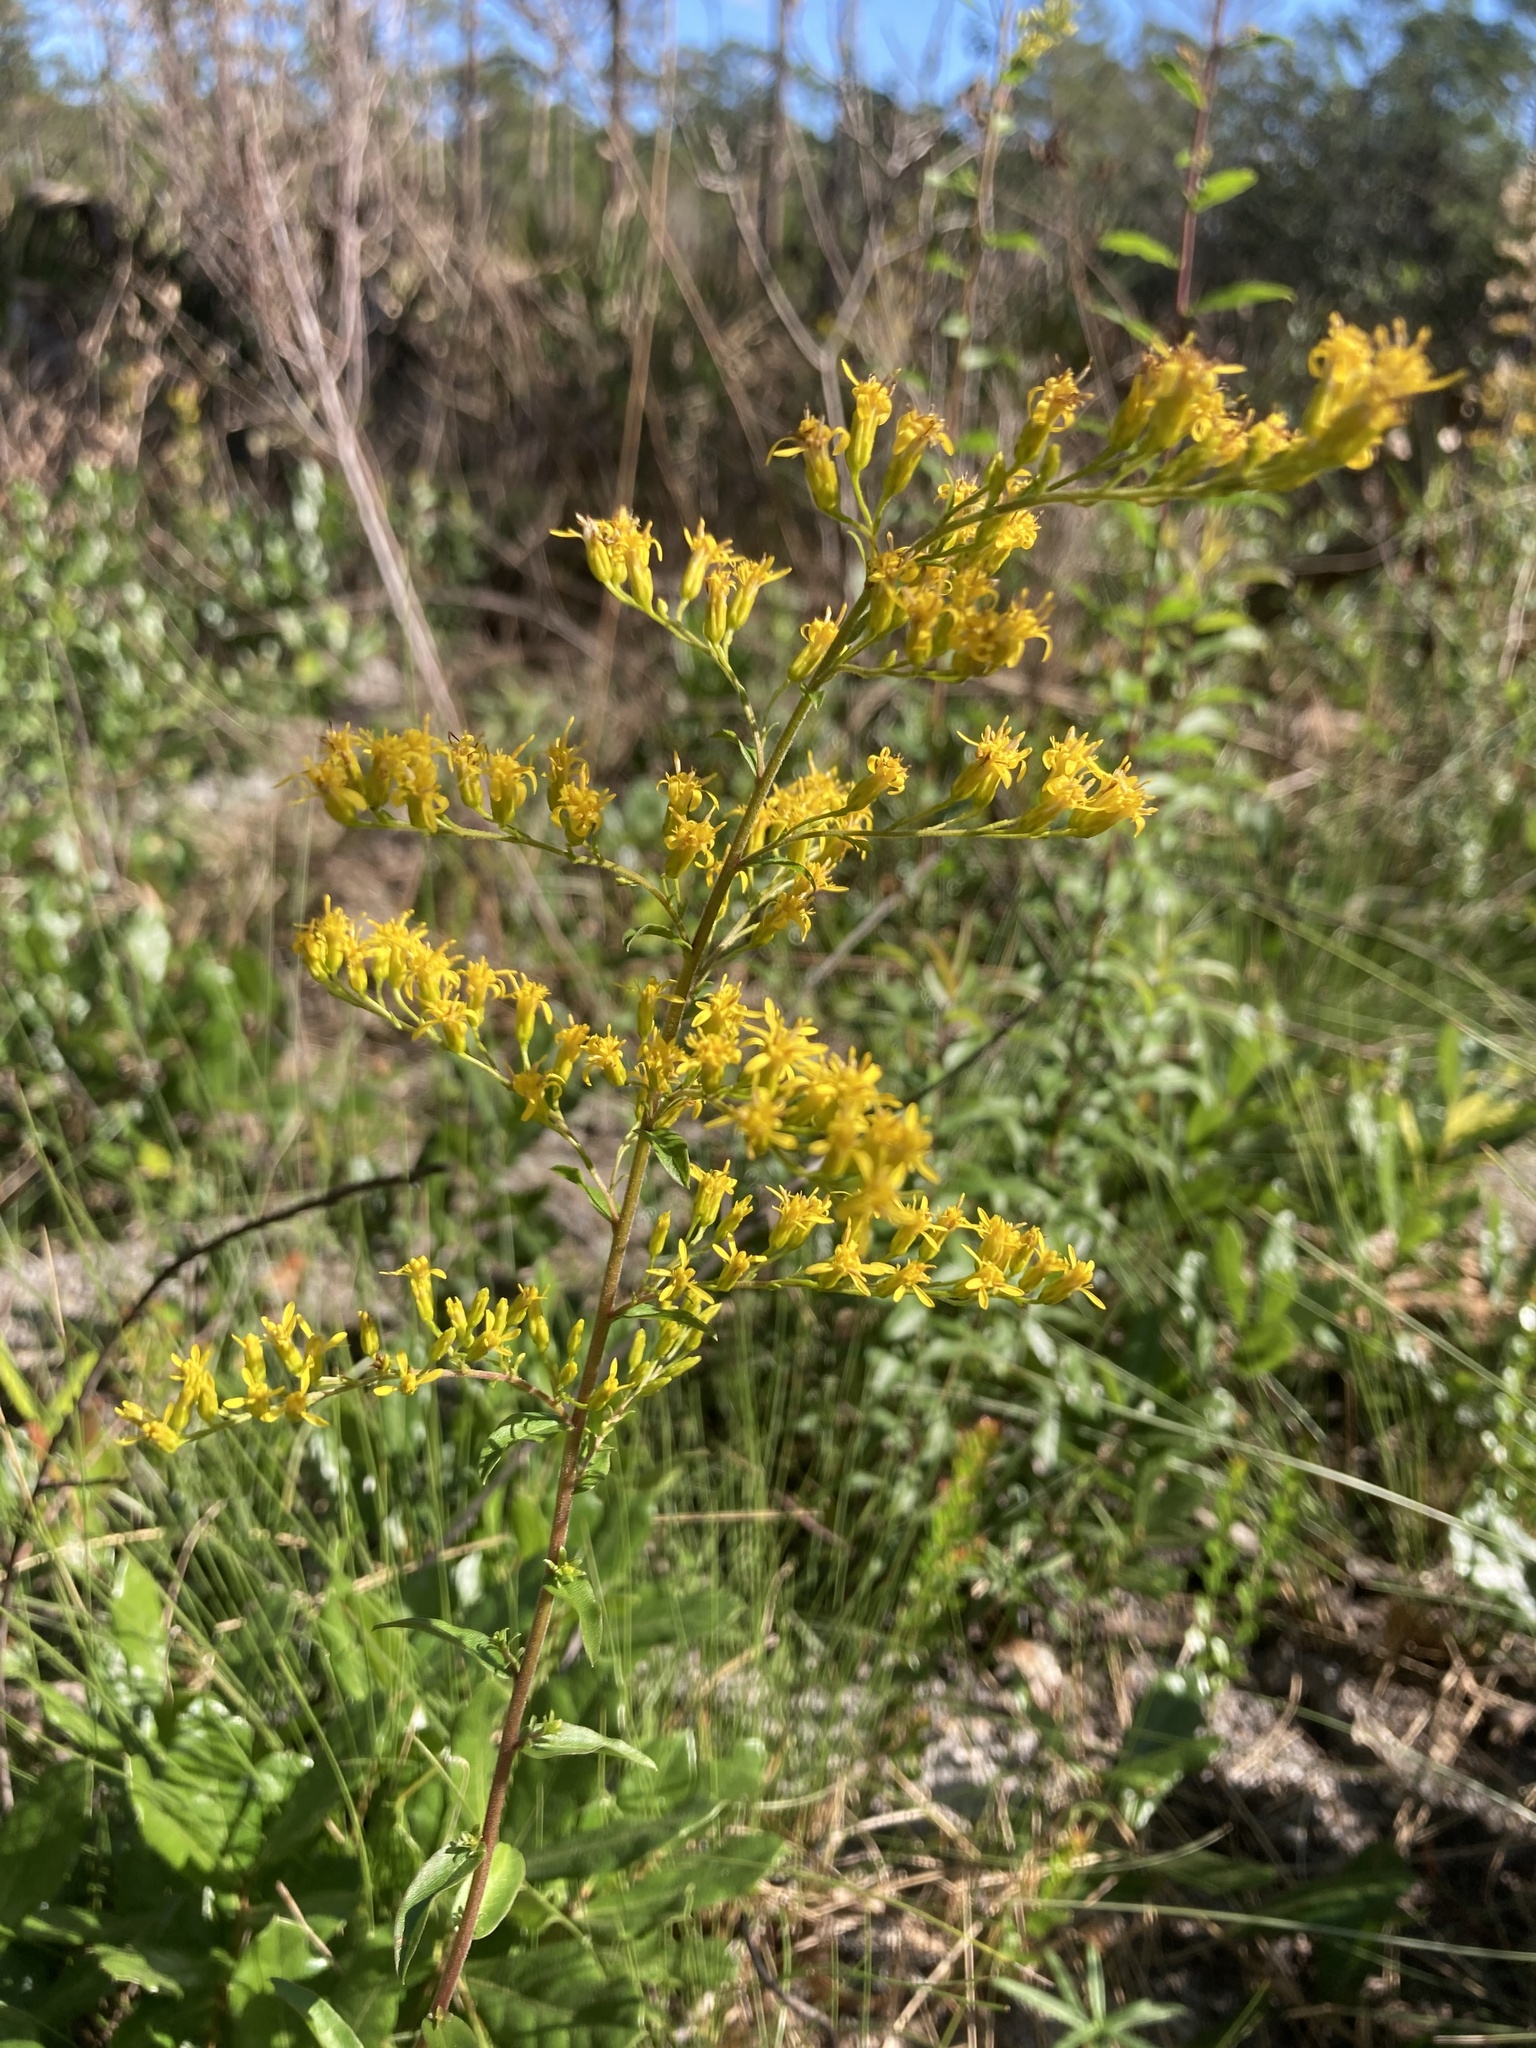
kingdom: Plantae
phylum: Tracheophyta
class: Magnoliopsida
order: Asterales
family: Asteraceae
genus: Solidago
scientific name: Solidago chapmanii
